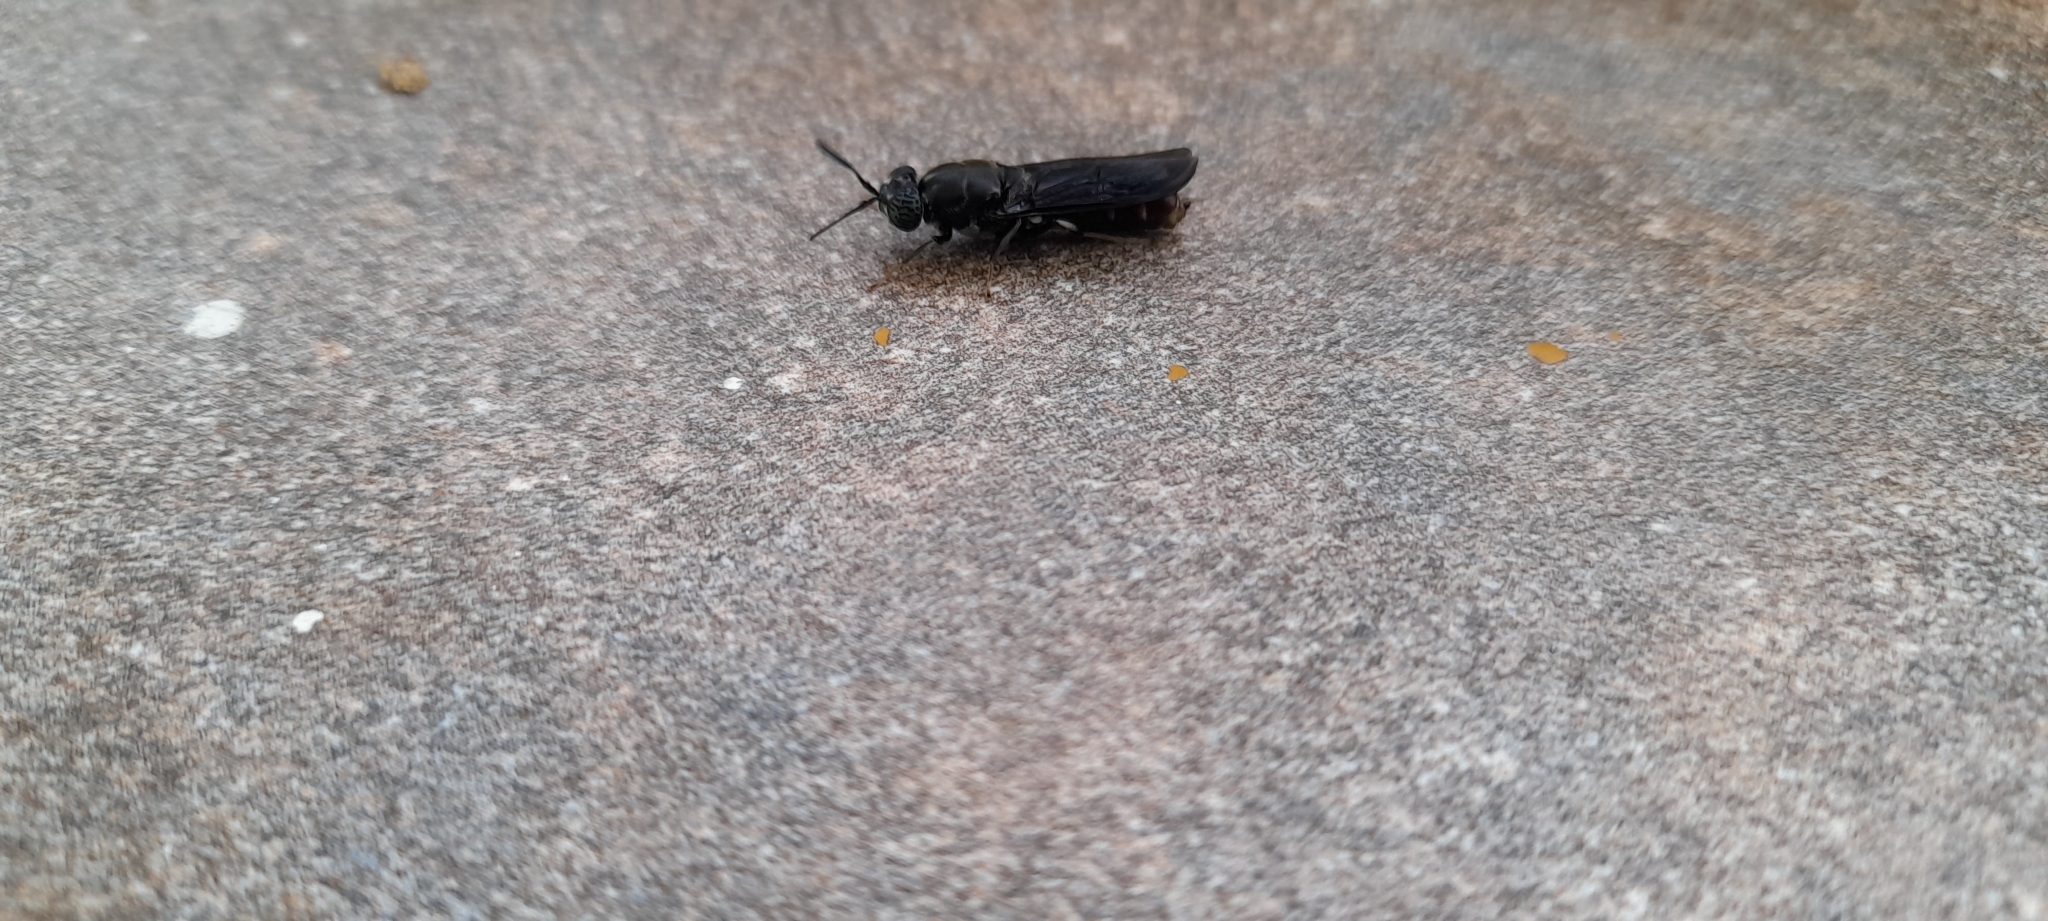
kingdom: Animalia
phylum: Arthropoda
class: Insecta
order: Diptera
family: Stratiomyidae
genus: Hermetia
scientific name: Hermetia illucens
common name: Black soldier fly
